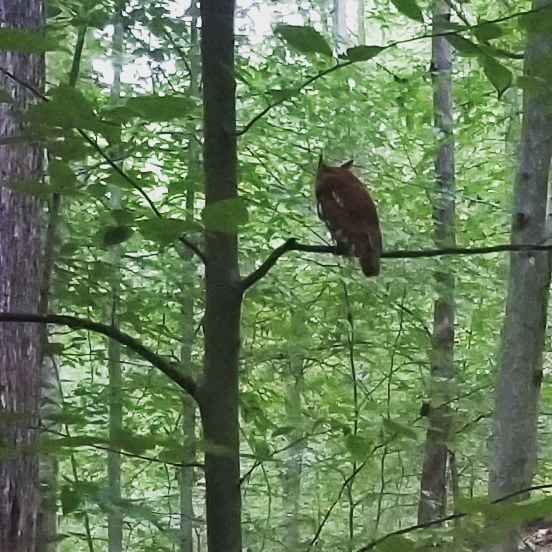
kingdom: Animalia
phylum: Chordata
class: Aves
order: Strigiformes
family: Strigidae
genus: Megascops
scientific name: Megascops asio
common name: Eastern screech-owl
